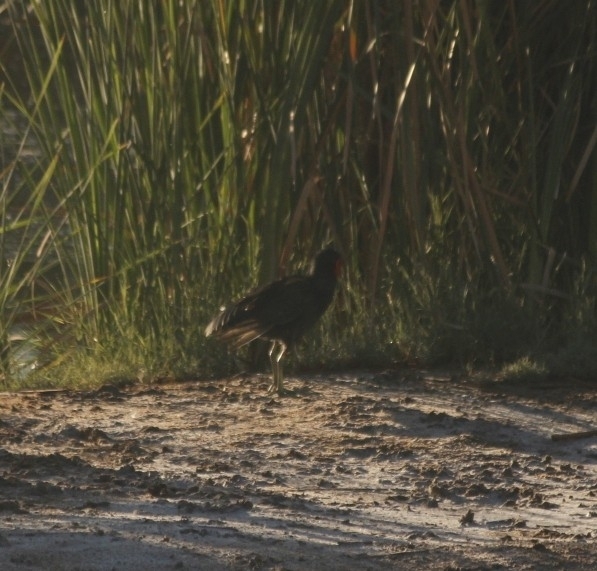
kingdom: Animalia
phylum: Chordata
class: Aves
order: Gruiformes
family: Rallidae
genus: Gallinula
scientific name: Gallinula chloropus
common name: Common moorhen
